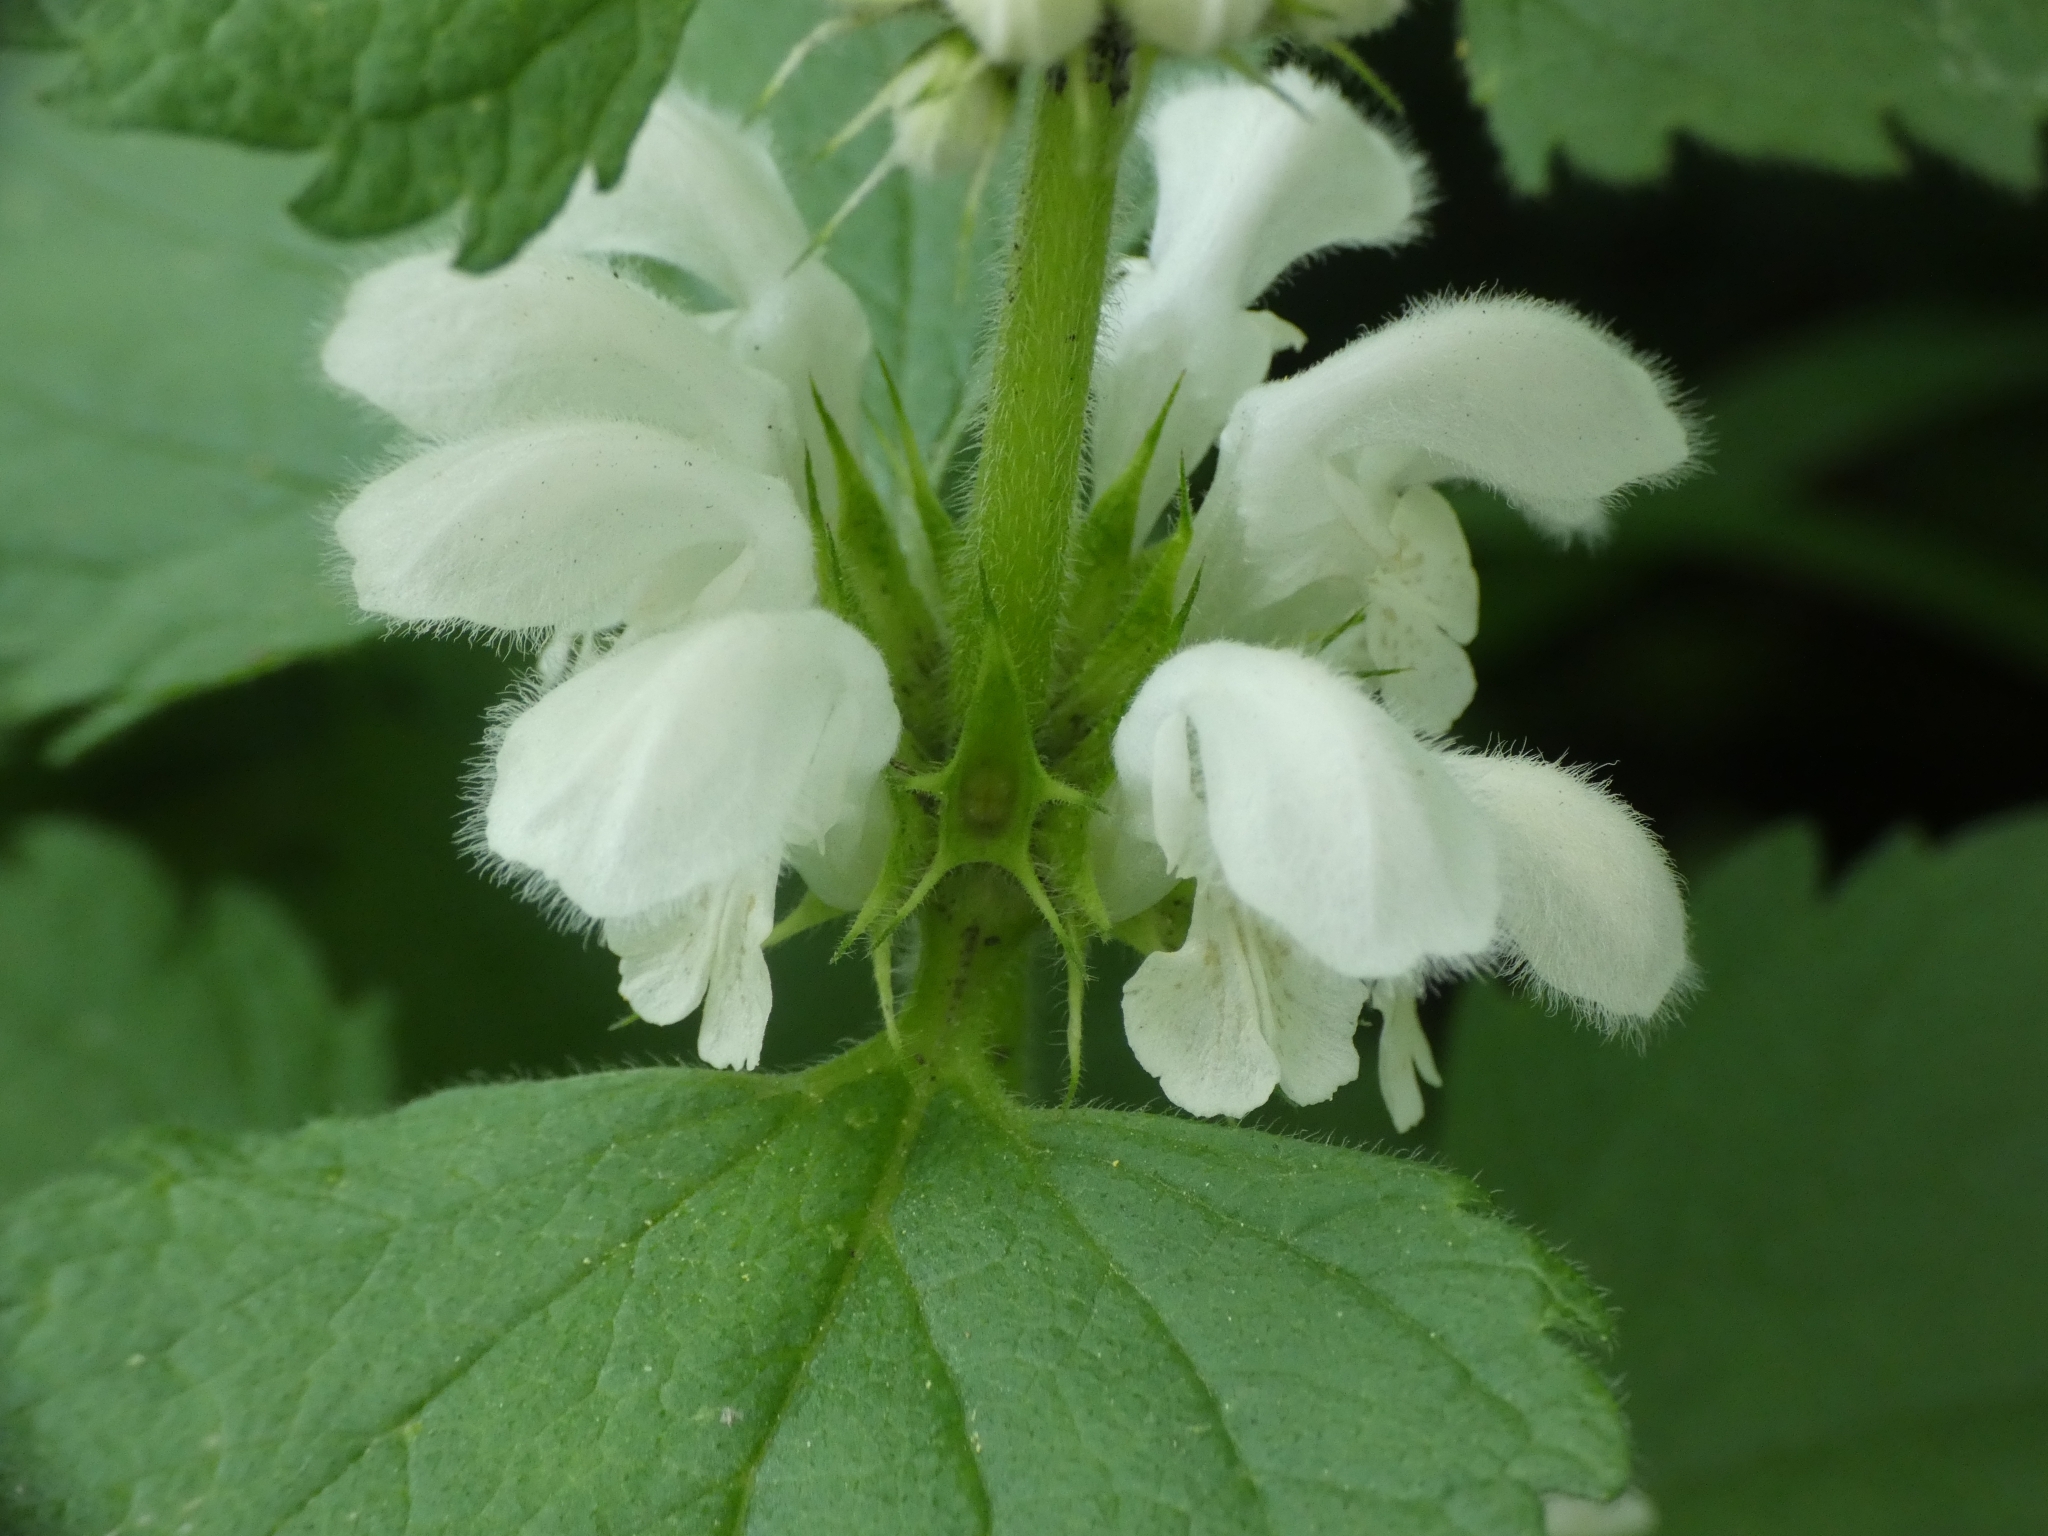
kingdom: Plantae
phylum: Tracheophyta
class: Magnoliopsida
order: Lamiales
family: Lamiaceae
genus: Lamium
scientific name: Lamium album
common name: White dead-nettle
